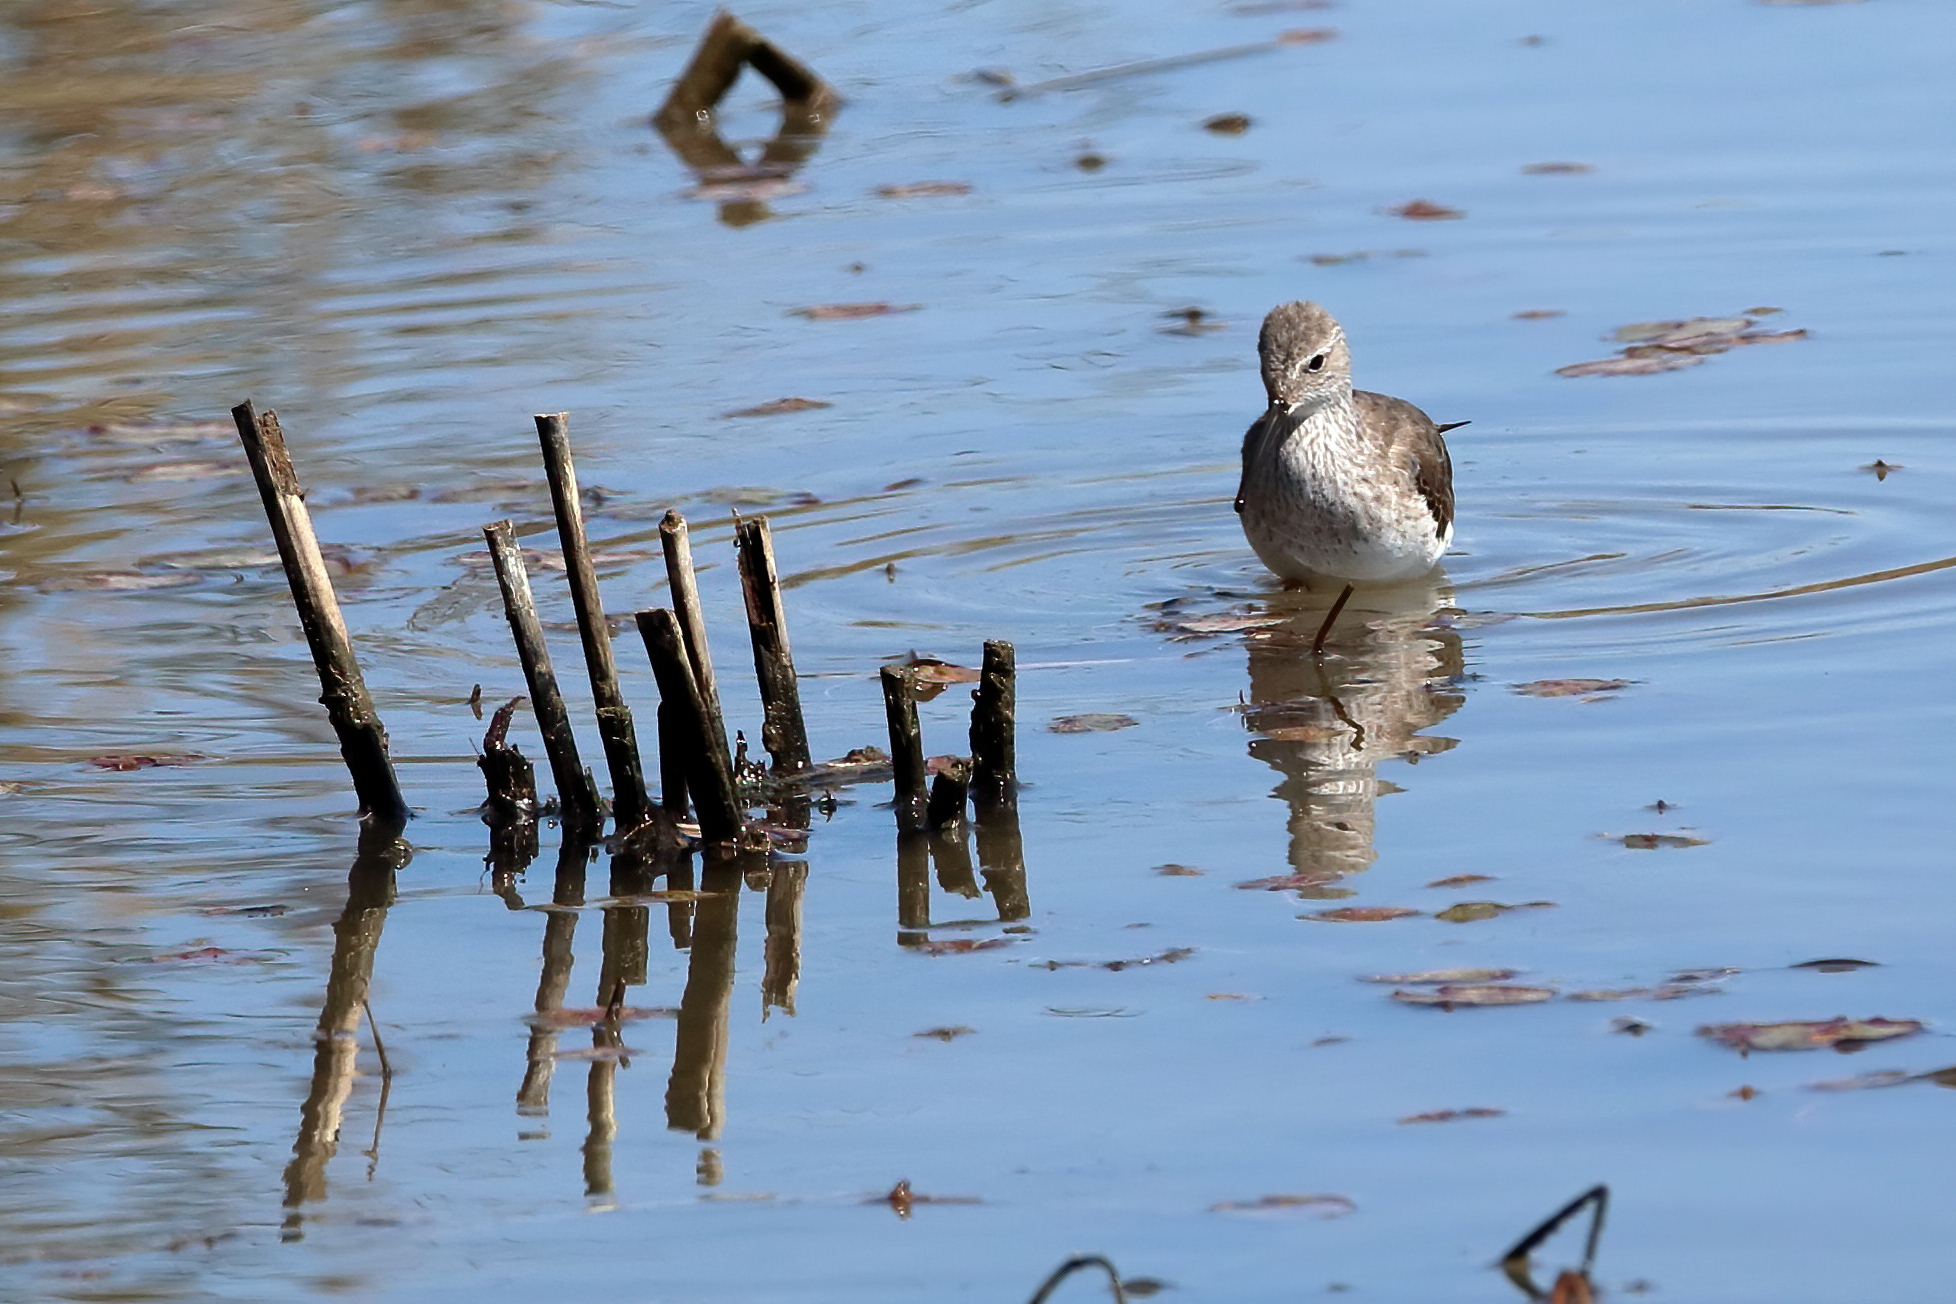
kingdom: Animalia
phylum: Chordata
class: Aves
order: Charadriiformes
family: Scolopacidae
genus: Calidris
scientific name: Calidris himantopus
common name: Stilt sandpiper
